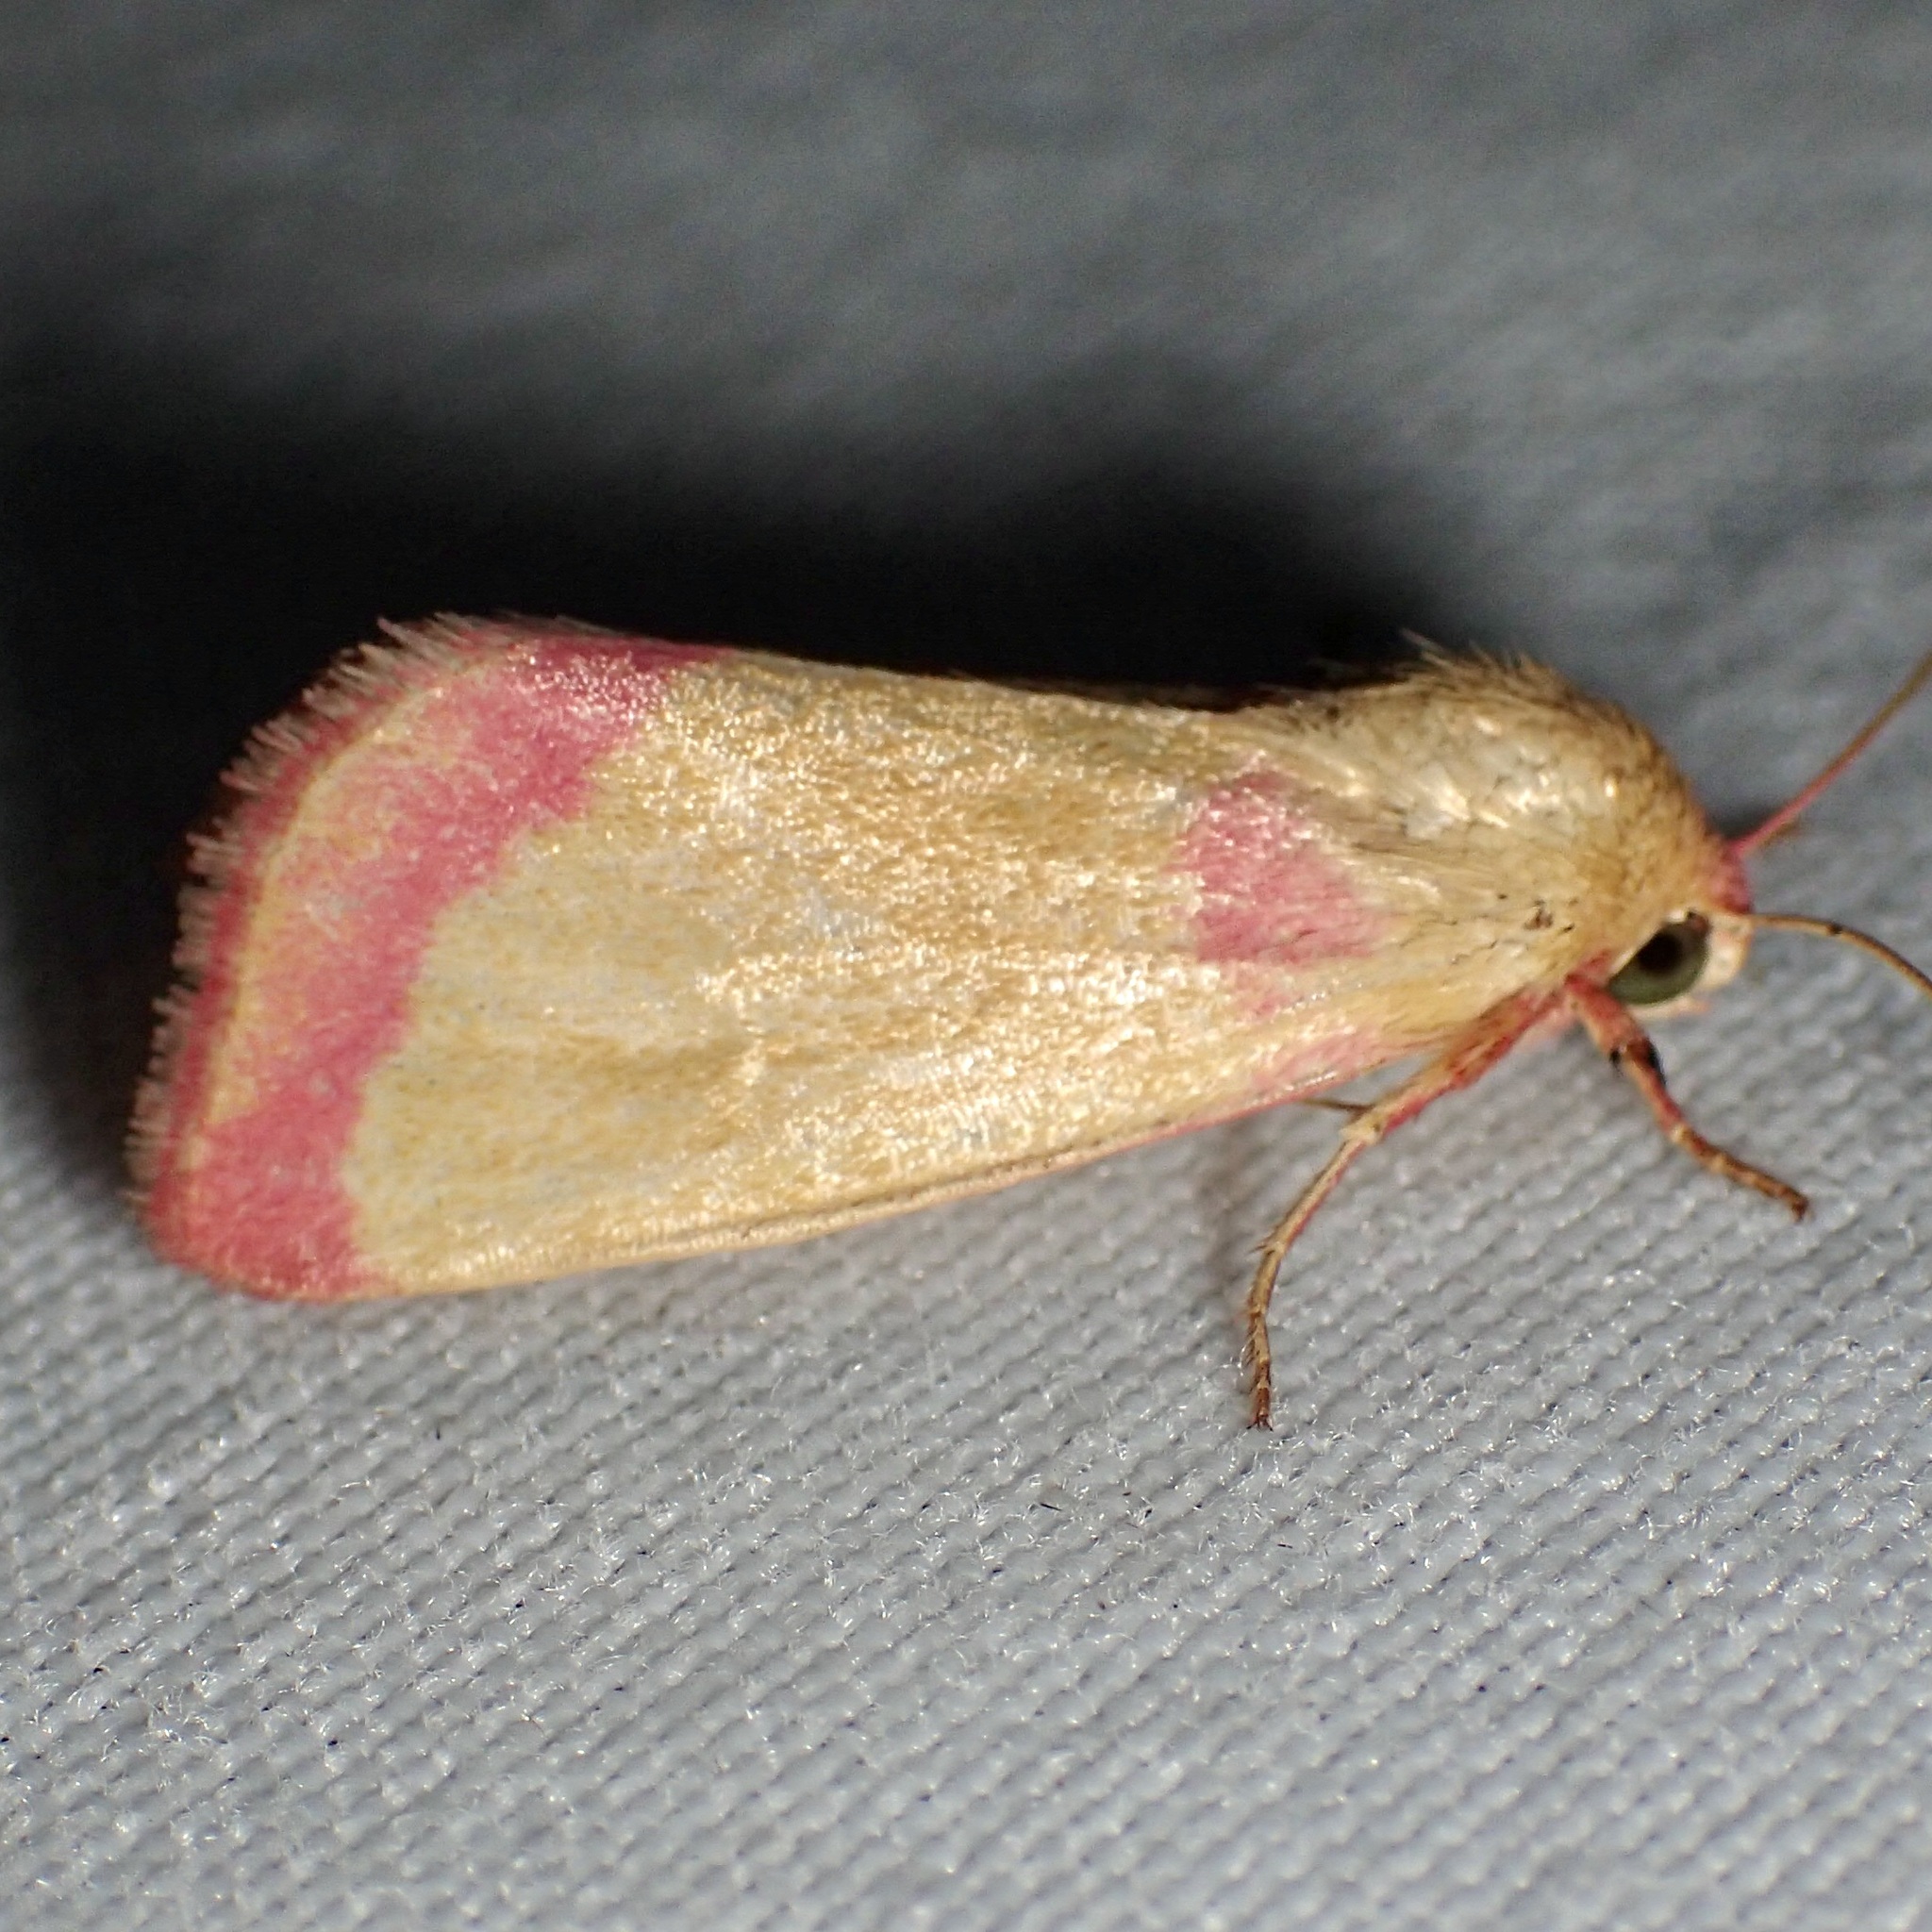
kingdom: Animalia
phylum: Arthropoda
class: Insecta
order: Lepidoptera
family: Noctuidae
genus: Heliocheilus
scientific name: Heliocheilus toralis
